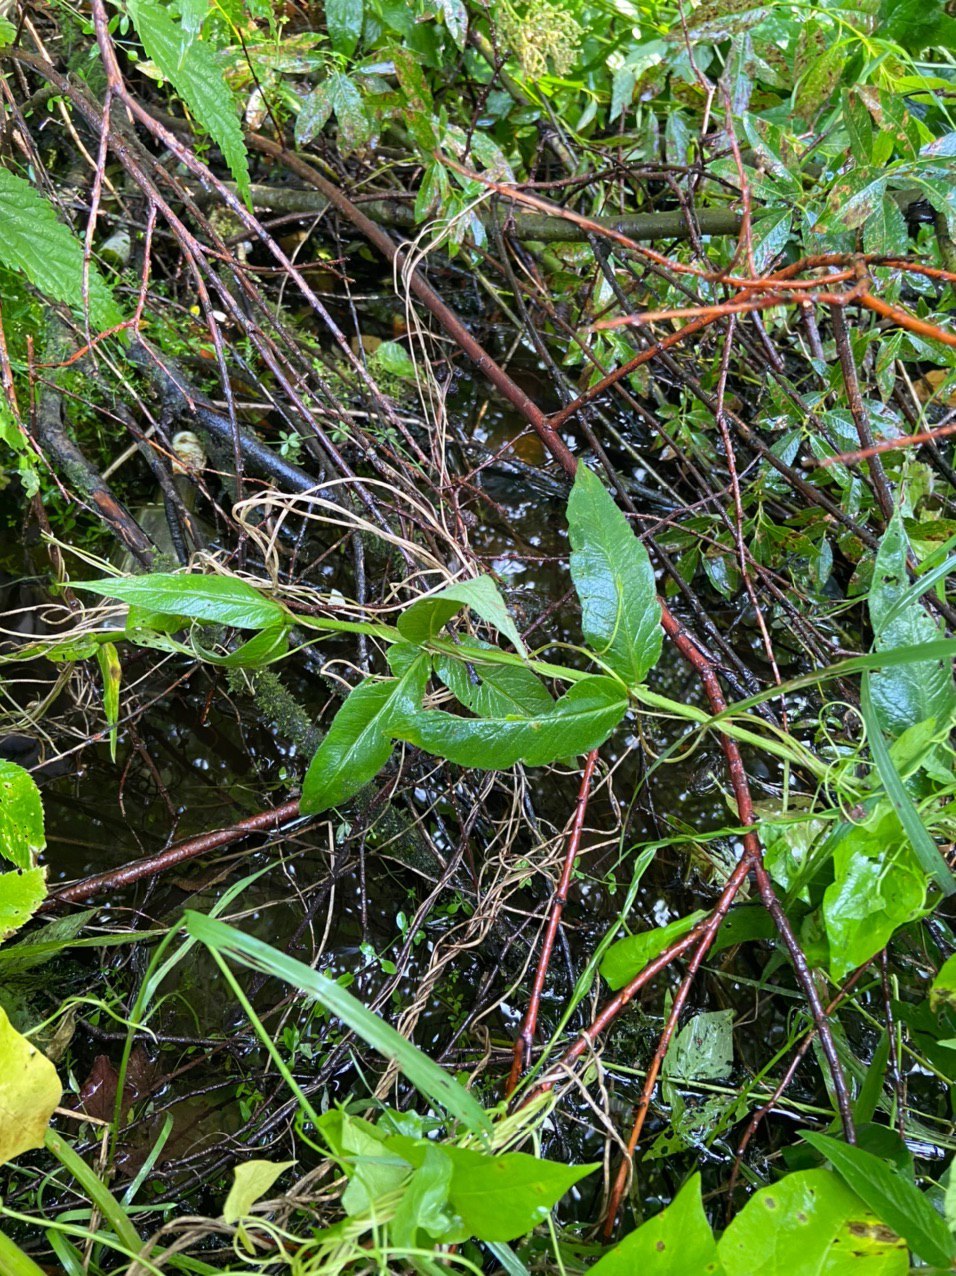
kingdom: Plantae
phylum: Tracheophyta
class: Magnoliopsida
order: Ericales
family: Primulaceae
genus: Lysimachia
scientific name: Lysimachia vulgaris
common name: Yellow loosestrife
